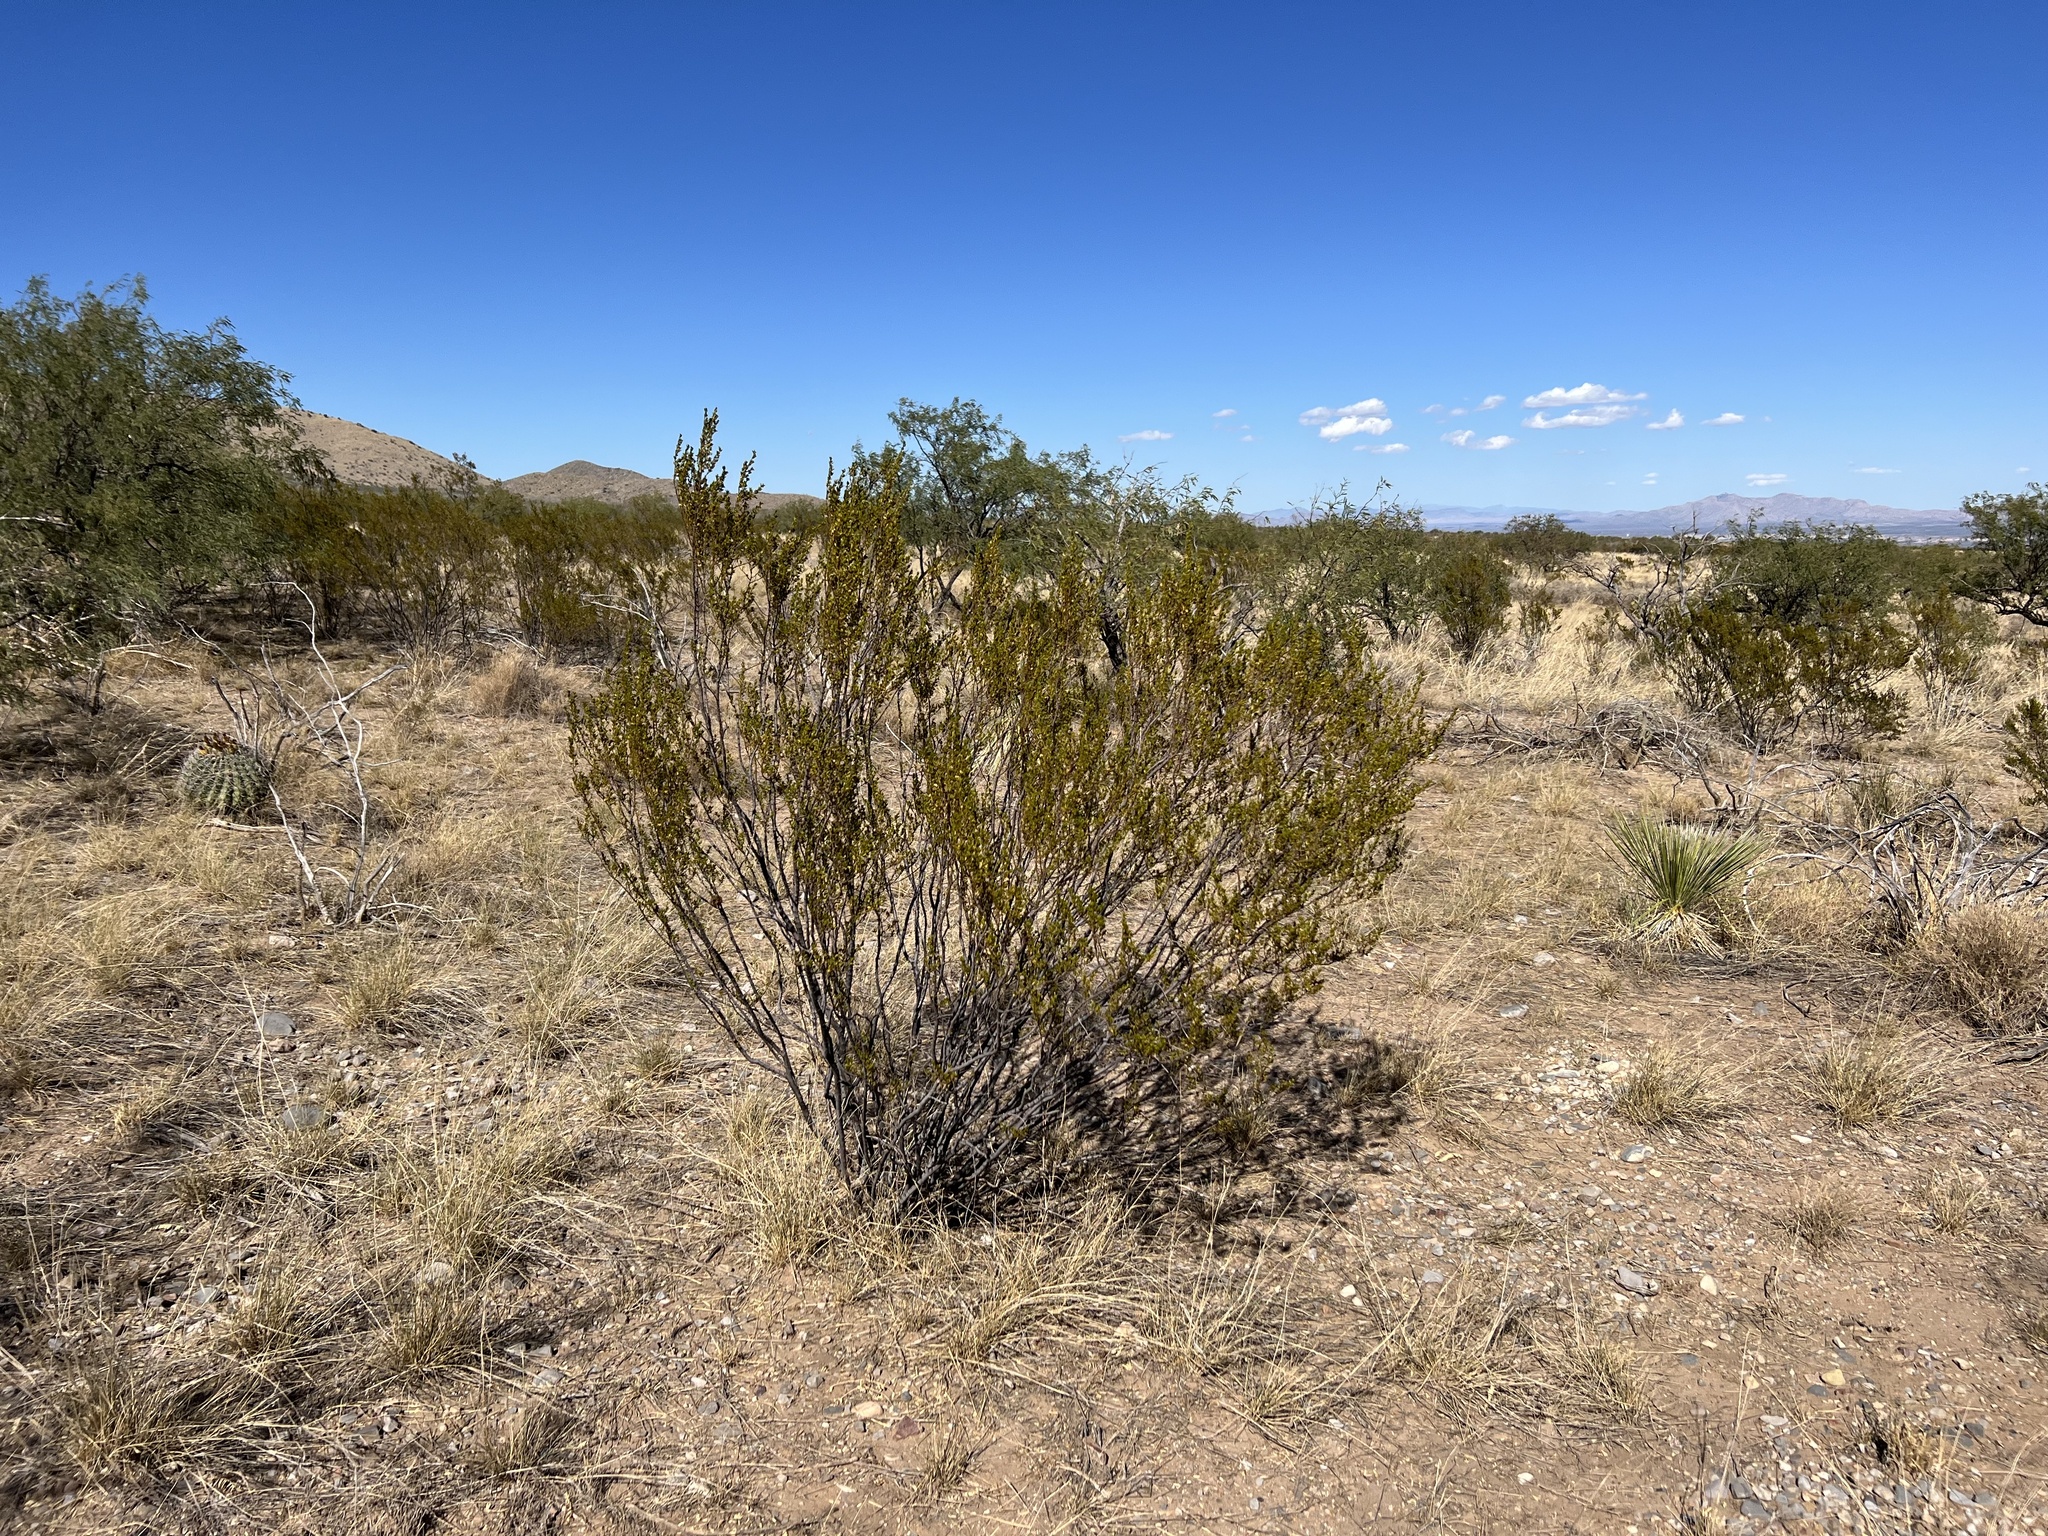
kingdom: Plantae
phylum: Tracheophyta
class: Magnoliopsida
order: Zygophyllales
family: Zygophyllaceae
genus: Larrea
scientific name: Larrea tridentata
